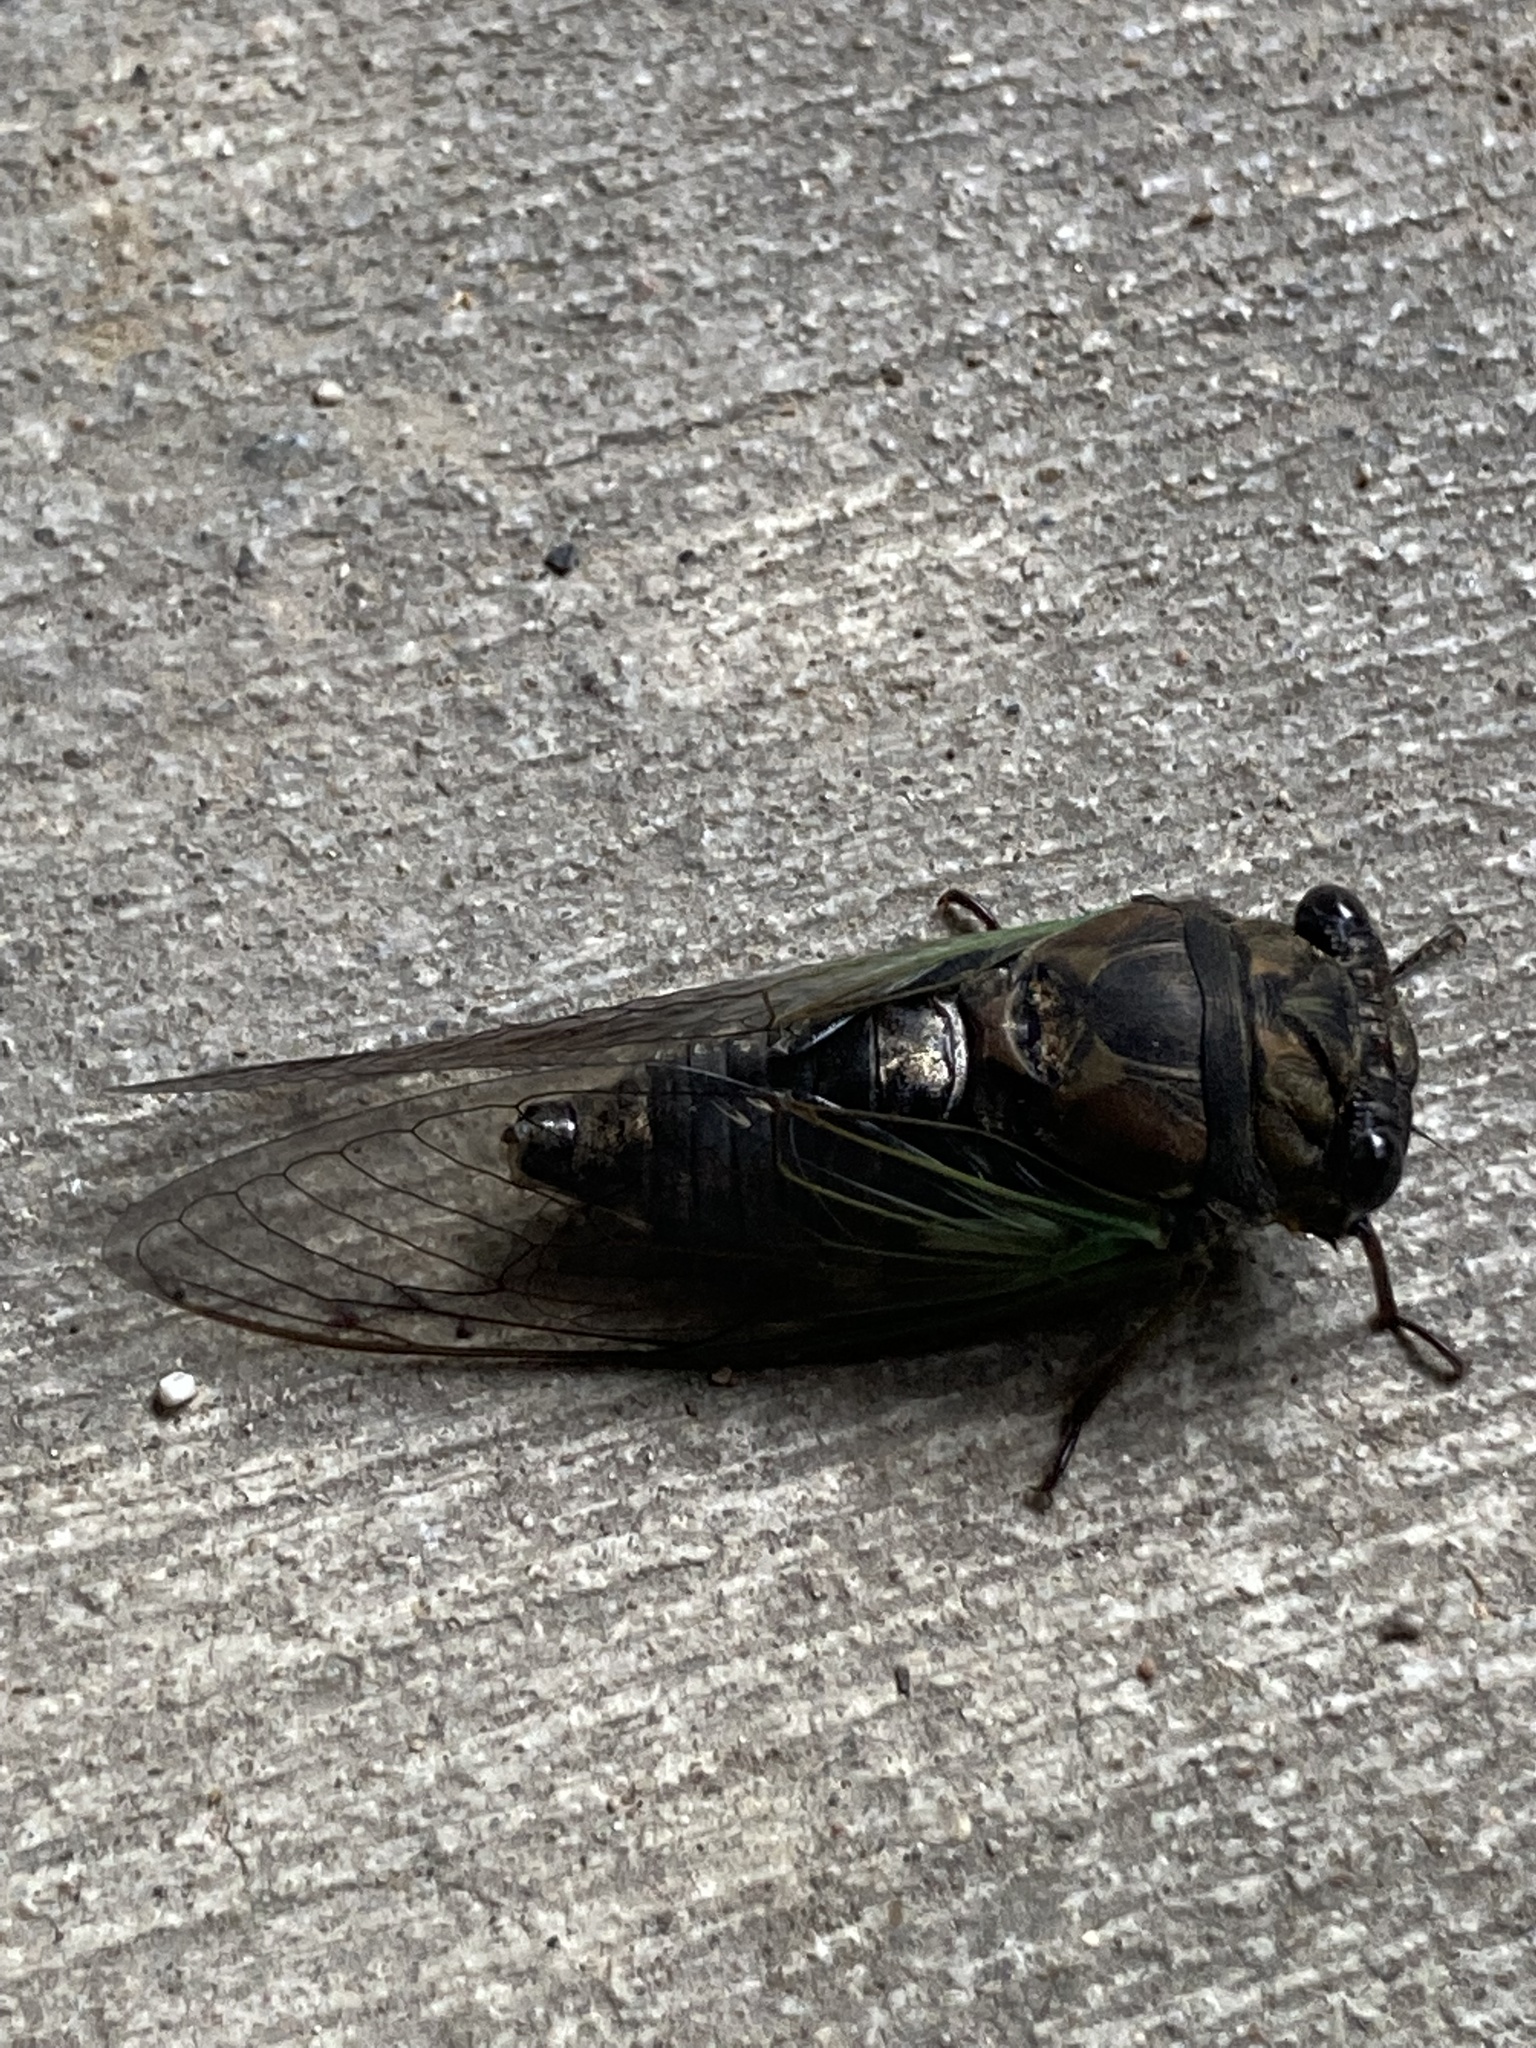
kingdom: Animalia
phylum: Arthropoda
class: Insecta
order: Hemiptera
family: Cicadidae
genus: Neotibicen
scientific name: Neotibicen lyricen
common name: Lyric cicada
